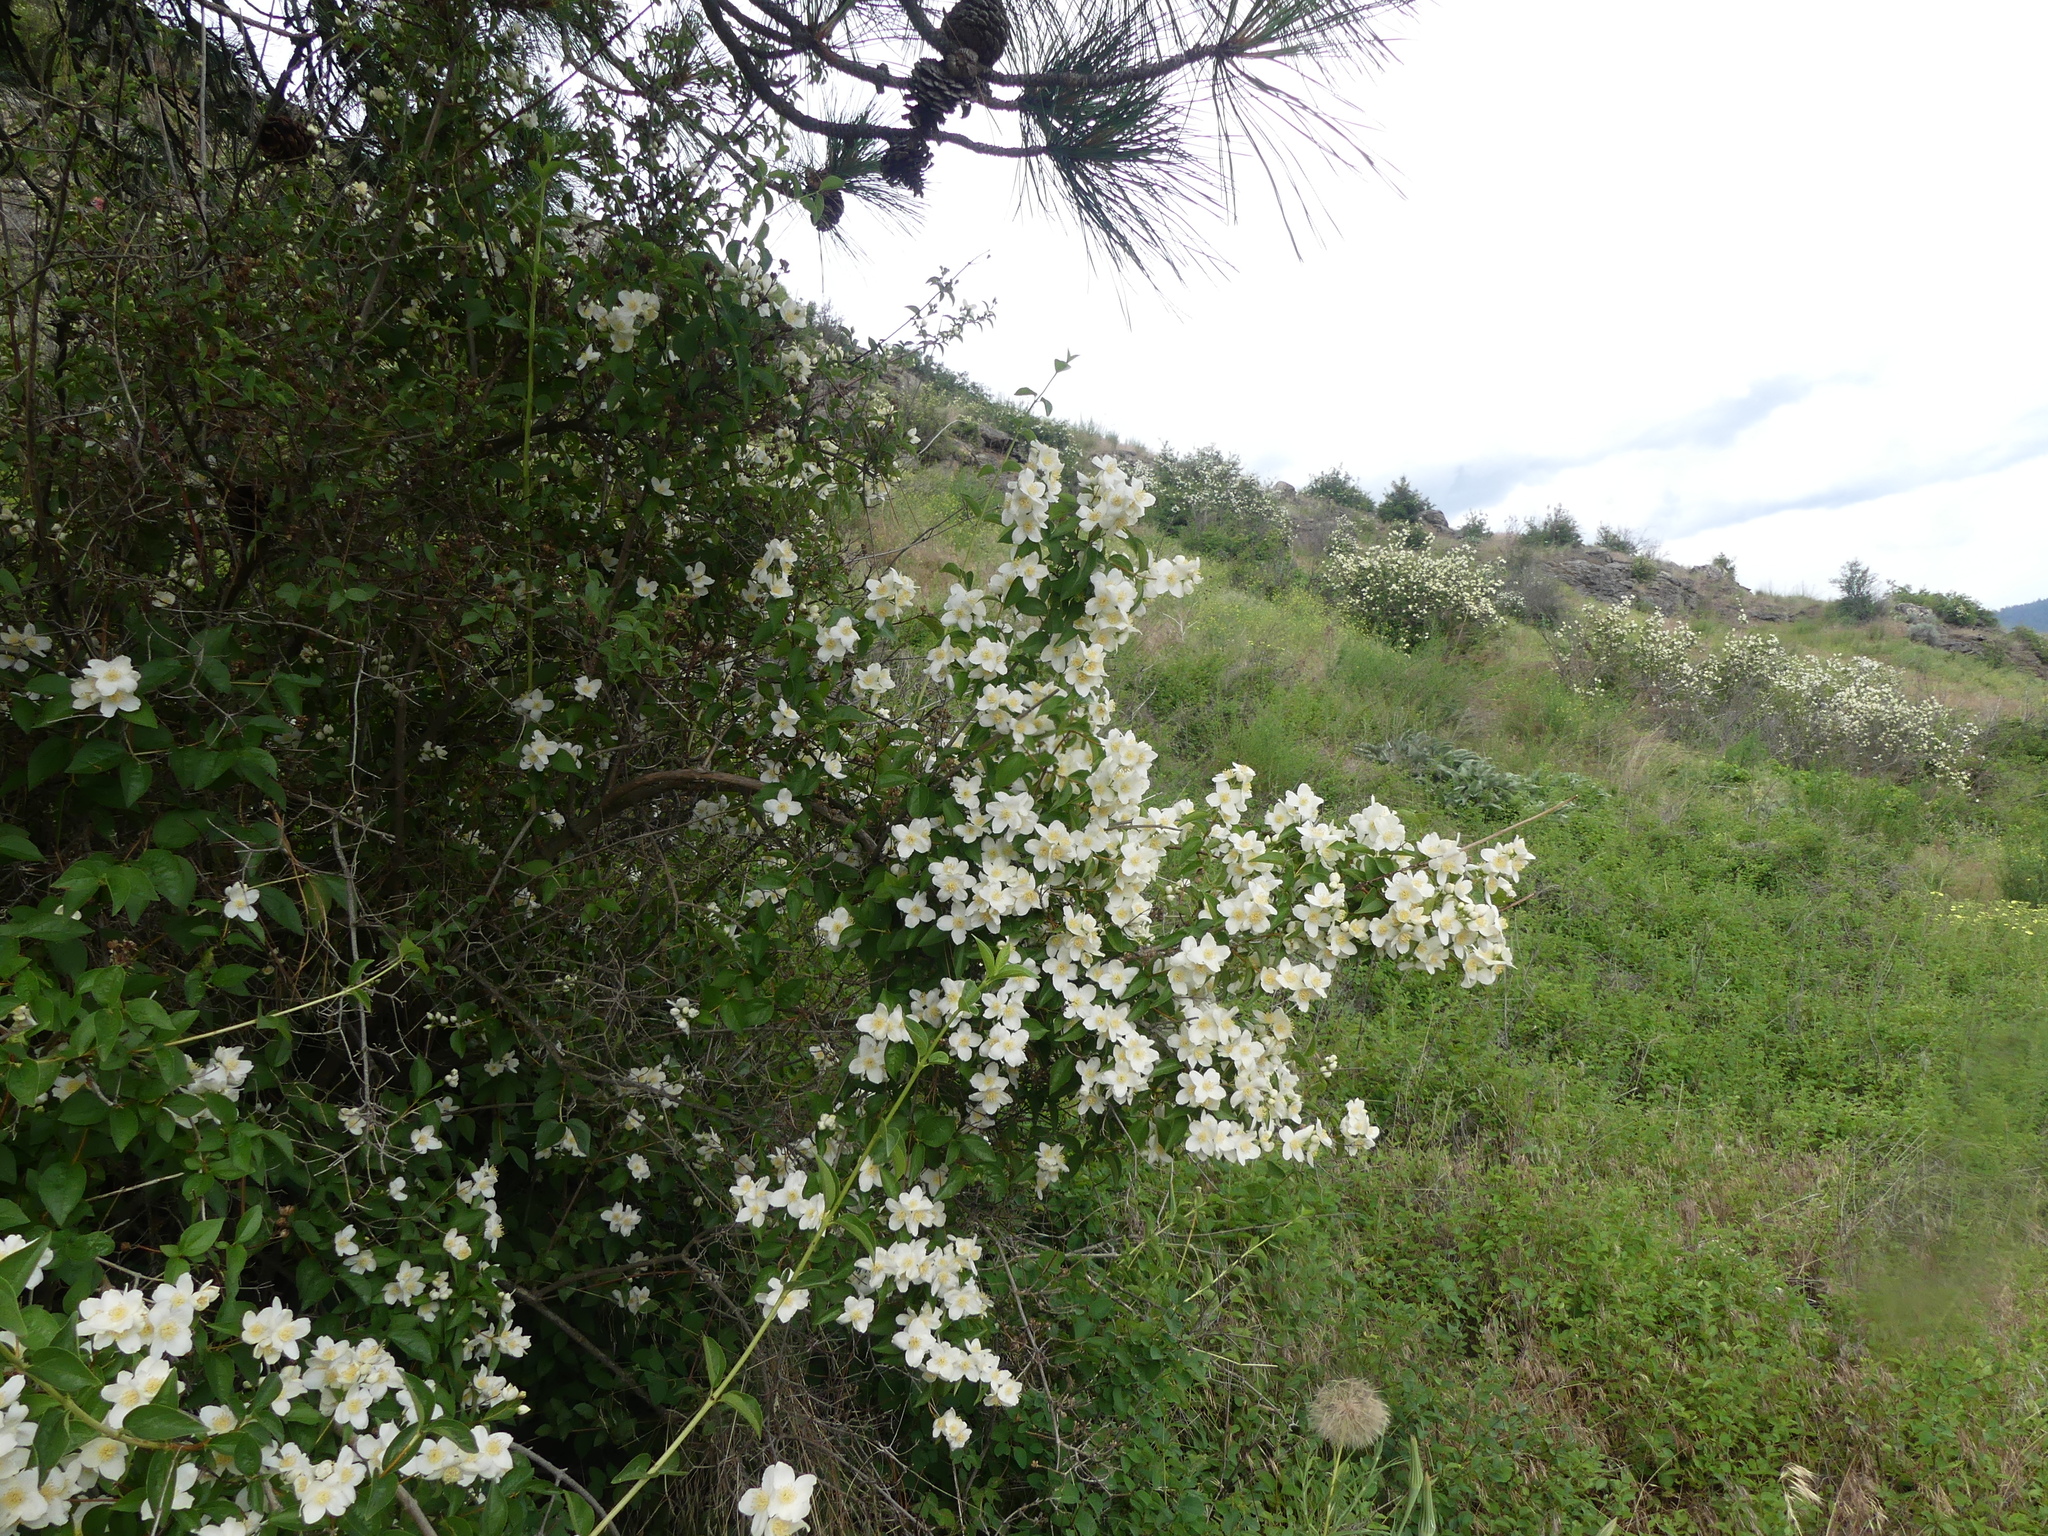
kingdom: Plantae
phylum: Tracheophyta
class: Magnoliopsida
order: Cornales
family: Hydrangeaceae
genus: Philadelphus
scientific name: Philadelphus lewisii
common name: Lewis's mock orange
